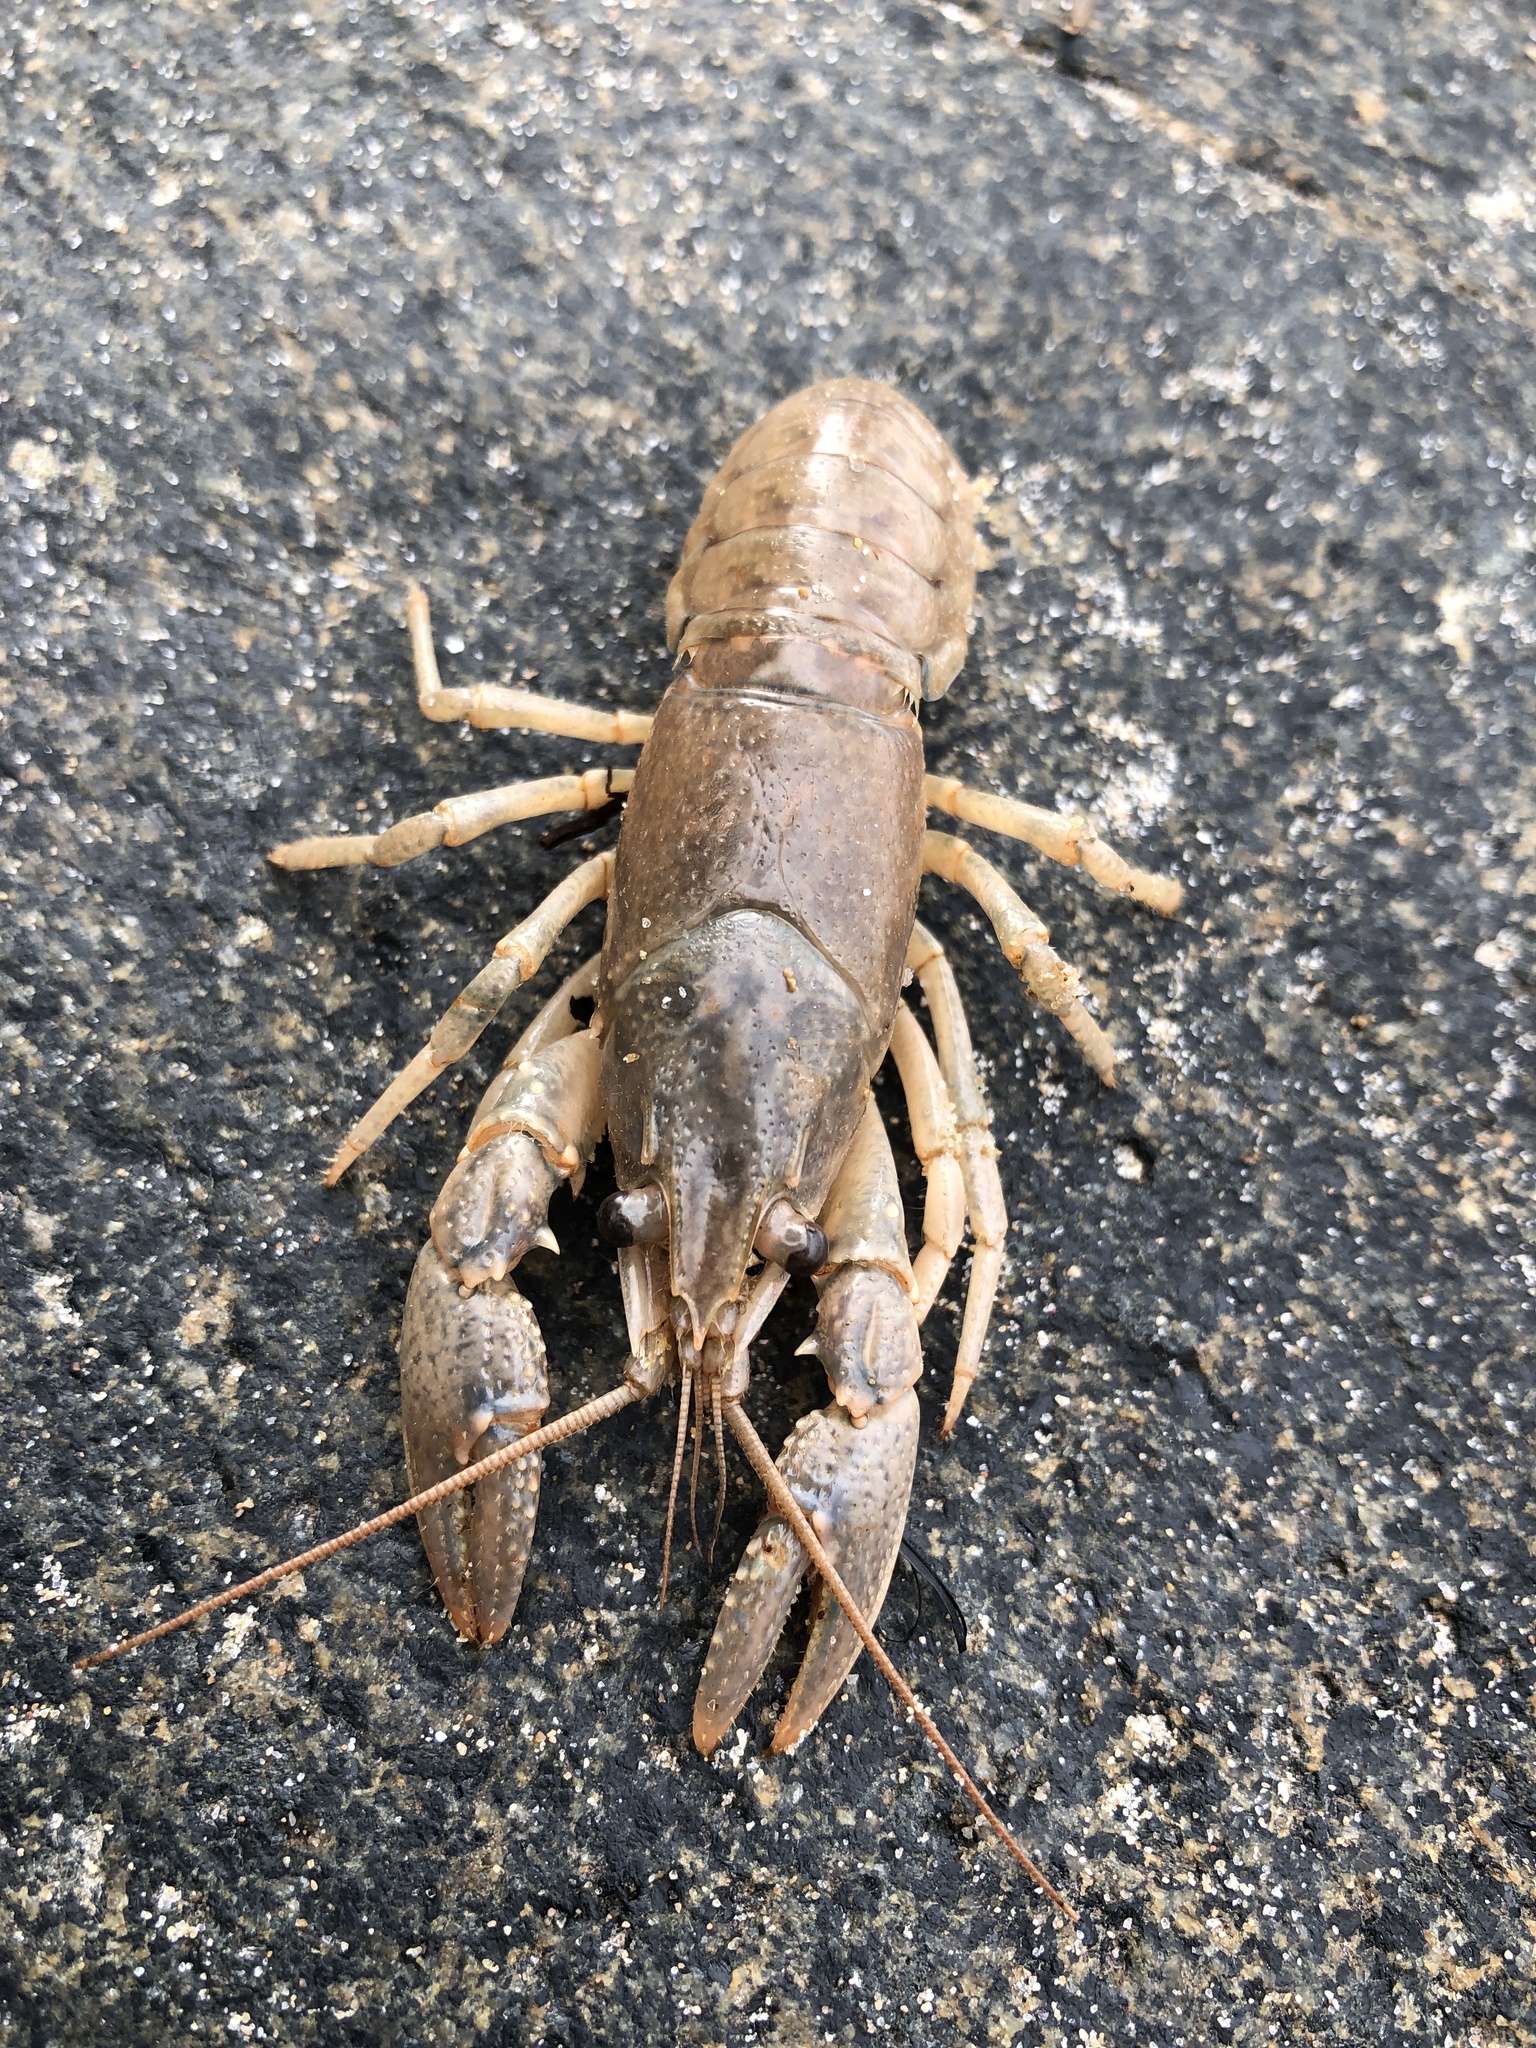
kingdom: Animalia
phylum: Arthropoda
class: Malacostraca
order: Decapoda
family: Cambaridae
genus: Faxonius
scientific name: Faxonius virilis
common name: Virile crayfish
